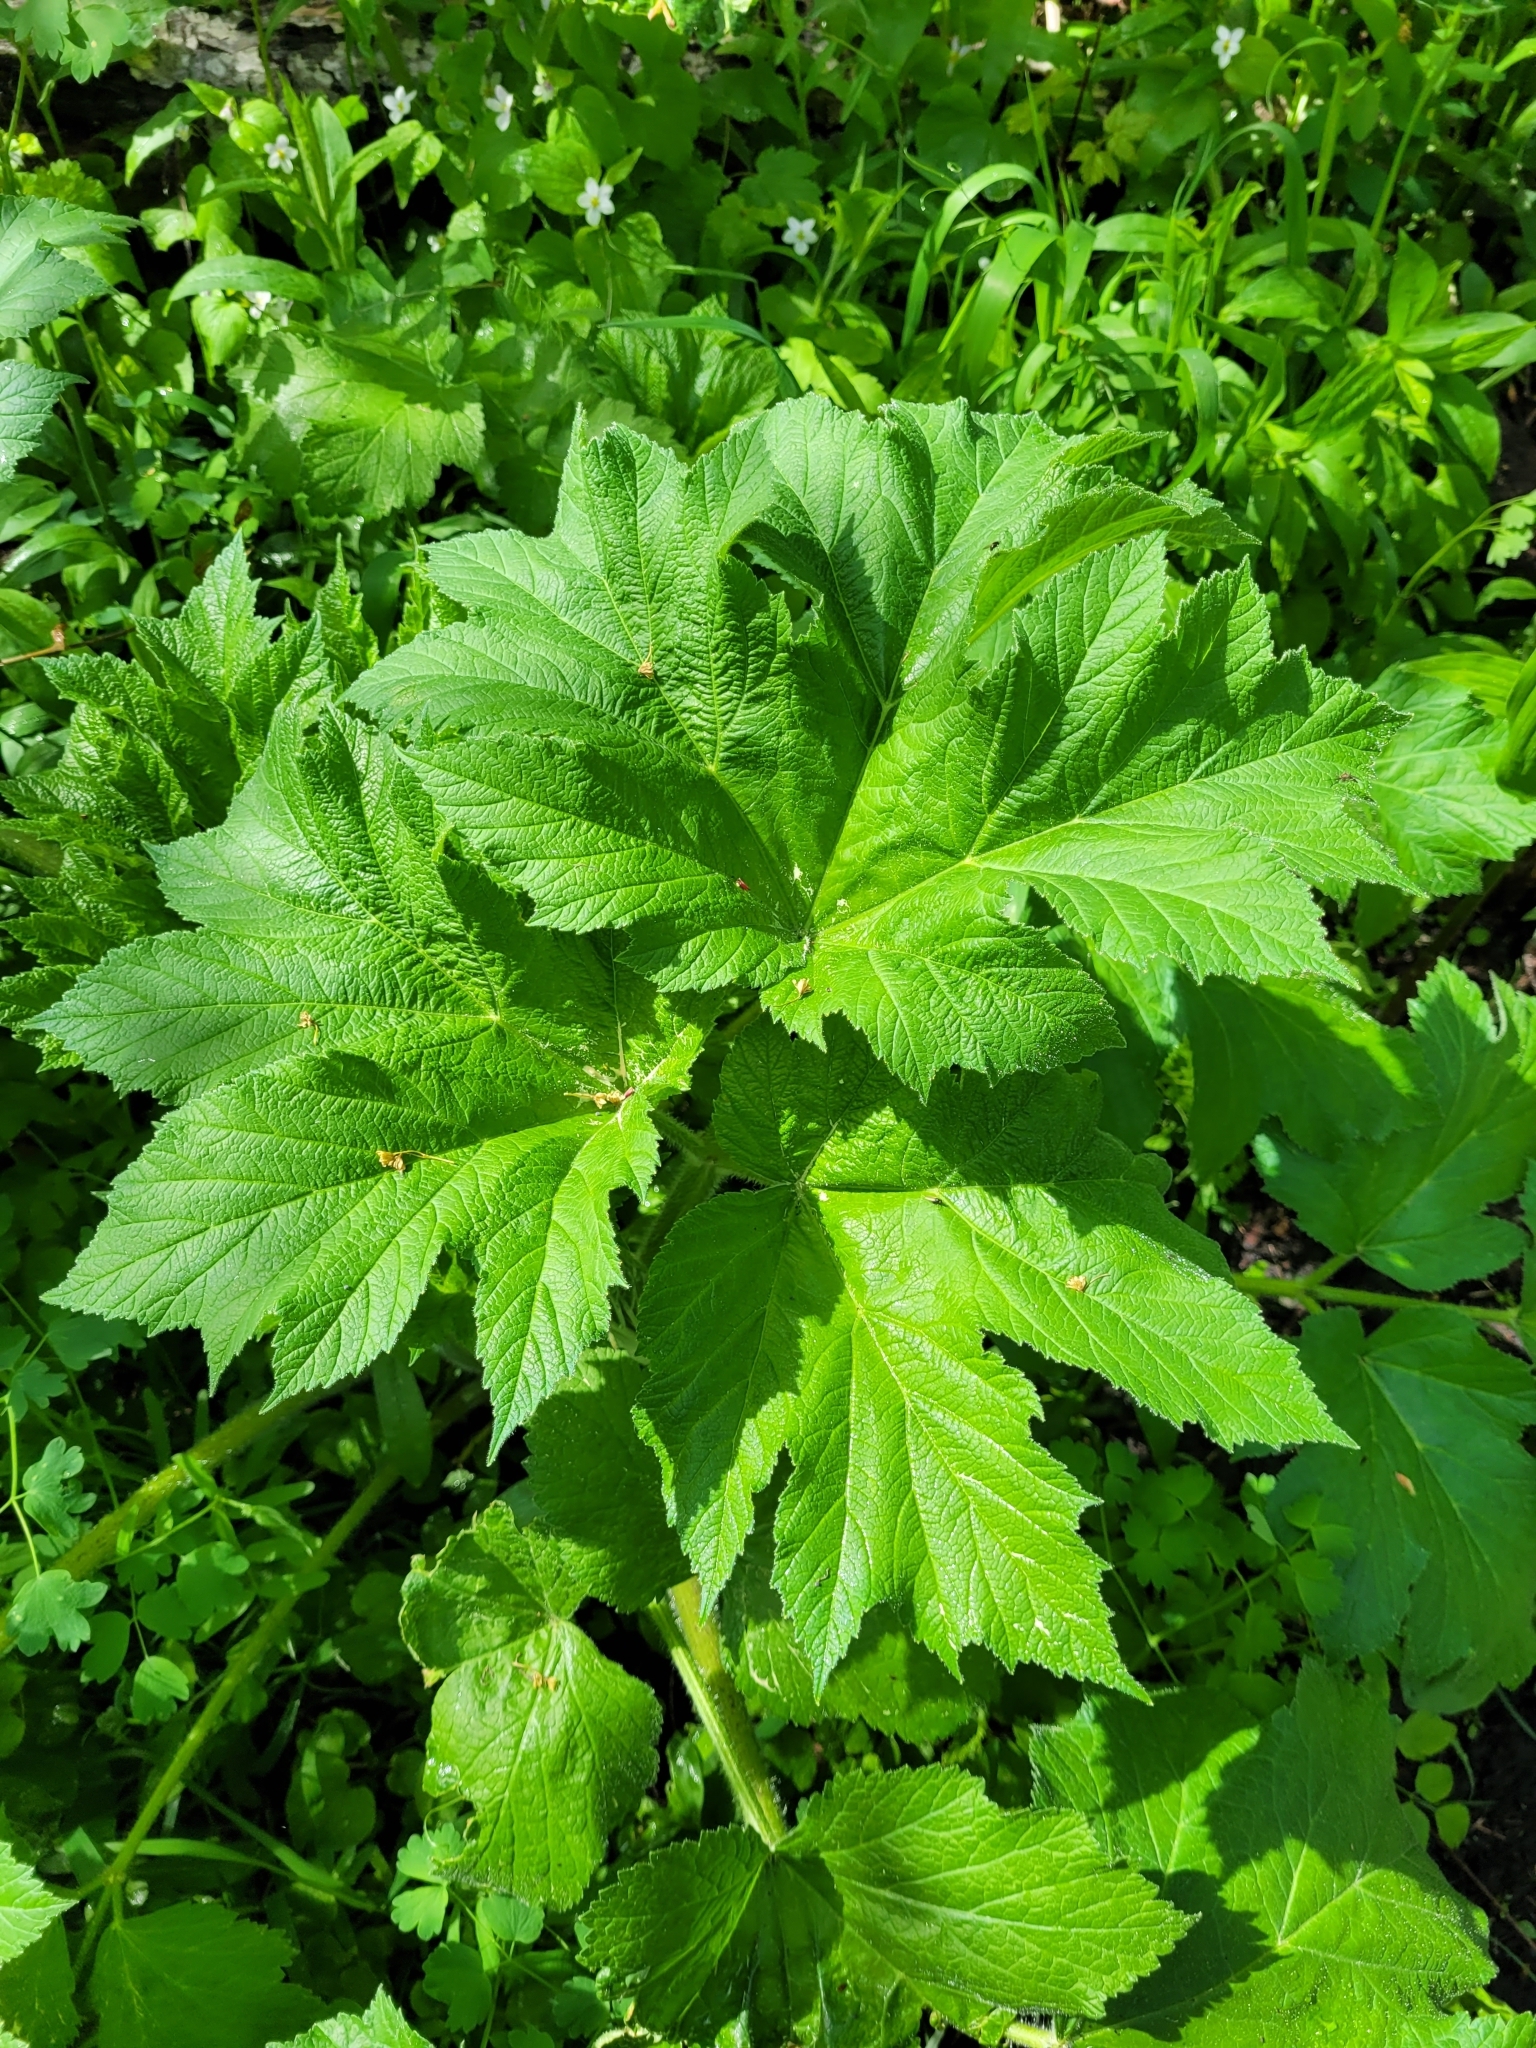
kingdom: Plantae
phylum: Tracheophyta
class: Magnoliopsida
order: Apiales
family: Apiaceae
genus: Heracleum
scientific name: Heracleum maximum
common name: American cow parsnip
